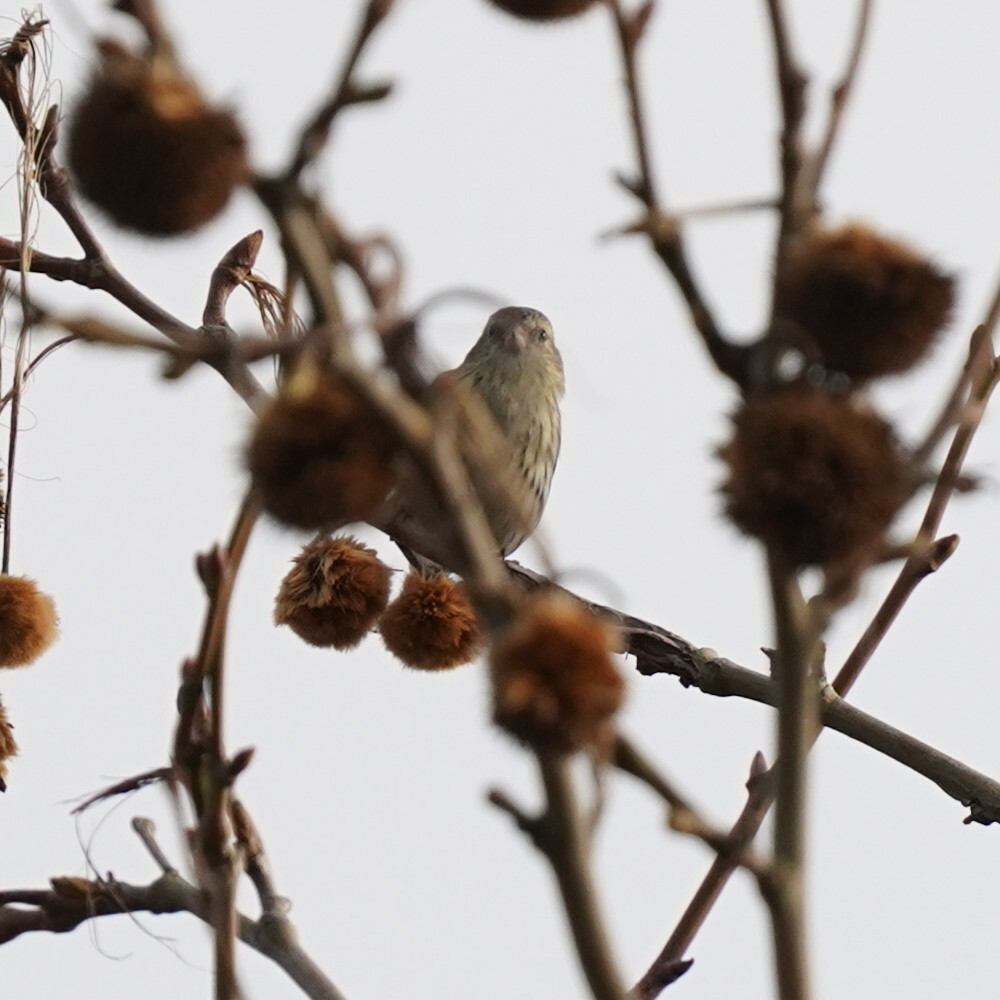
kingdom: Animalia
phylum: Chordata
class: Aves
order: Passeriformes
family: Fringillidae
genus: Spinus
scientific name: Spinus spinus
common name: Eurasian siskin
